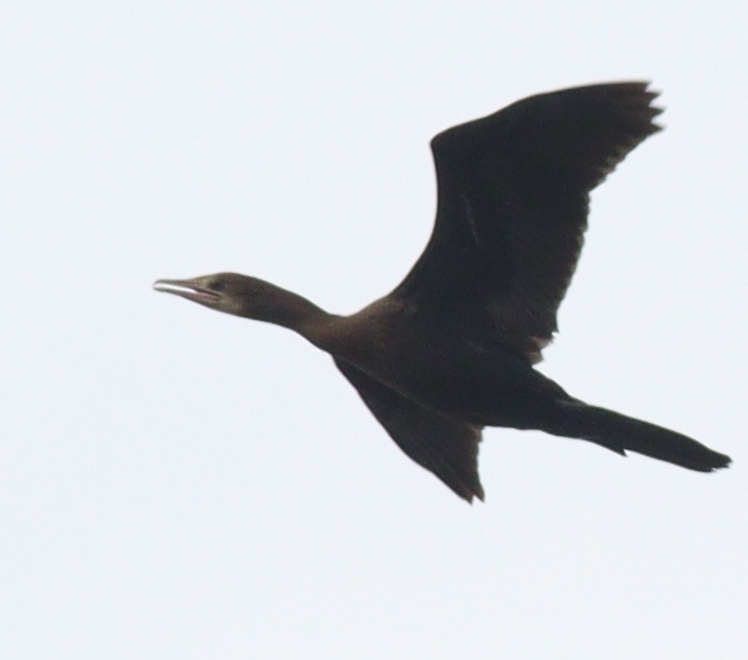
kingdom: Animalia
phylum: Chordata
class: Aves
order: Suliformes
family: Phalacrocoracidae
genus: Microcarbo
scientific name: Microcarbo niger
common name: Little cormorant
